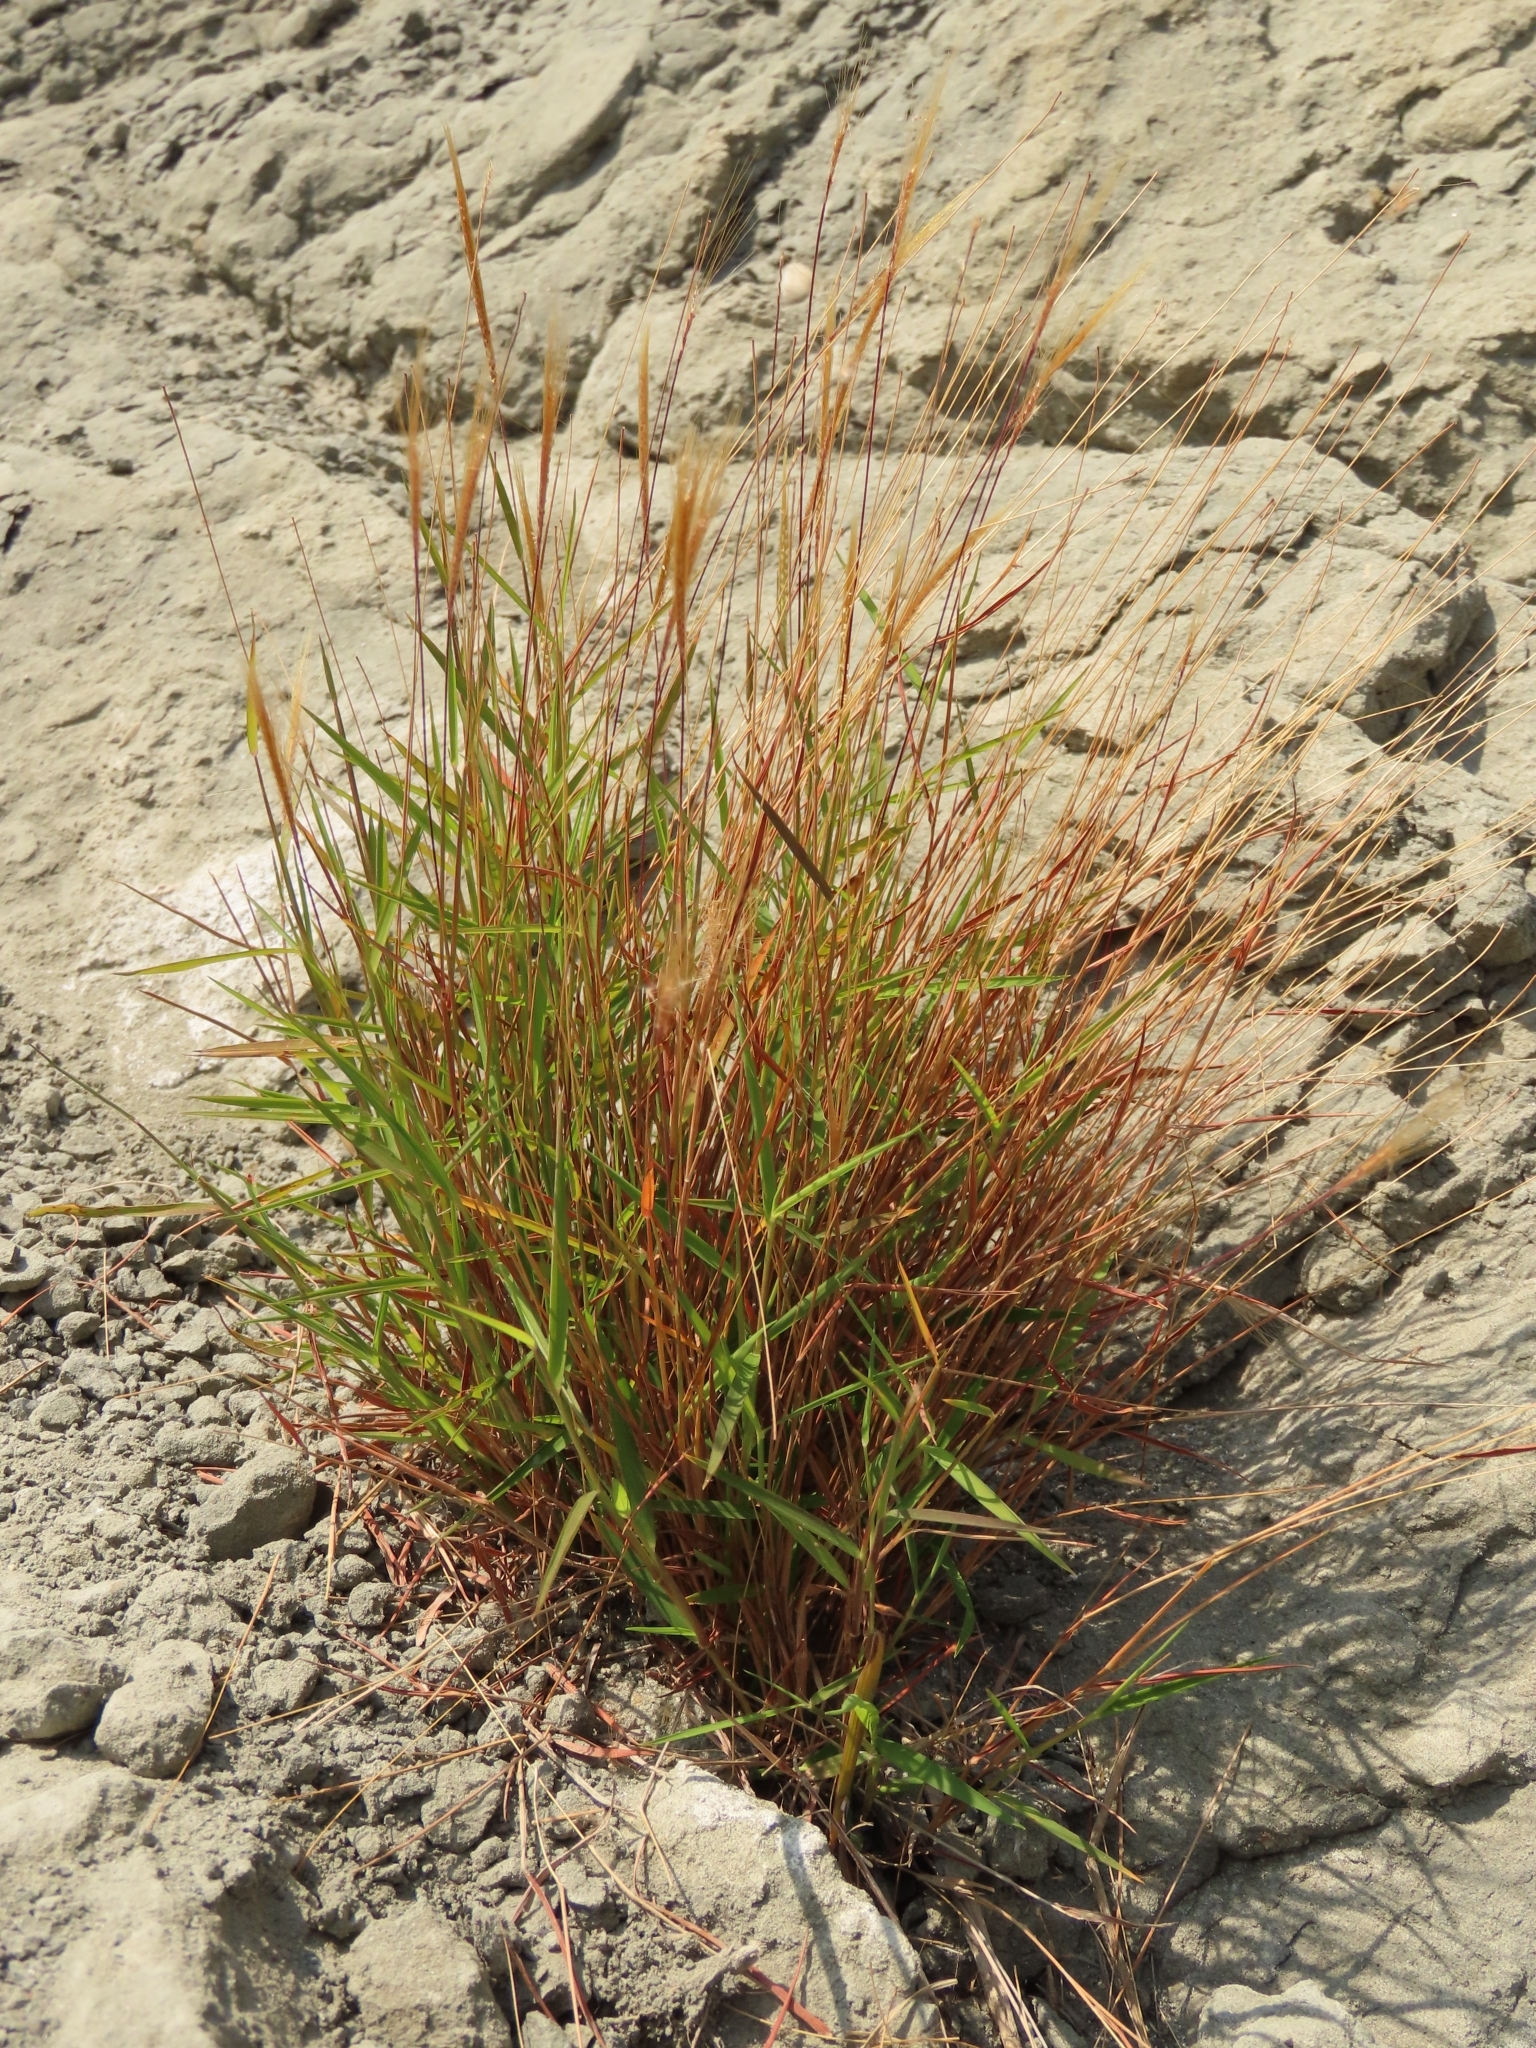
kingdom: Plantae
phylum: Tracheophyta
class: Liliopsida
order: Poales
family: Poaceae
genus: Pogonatherum
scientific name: Pogonatherum crinitum
